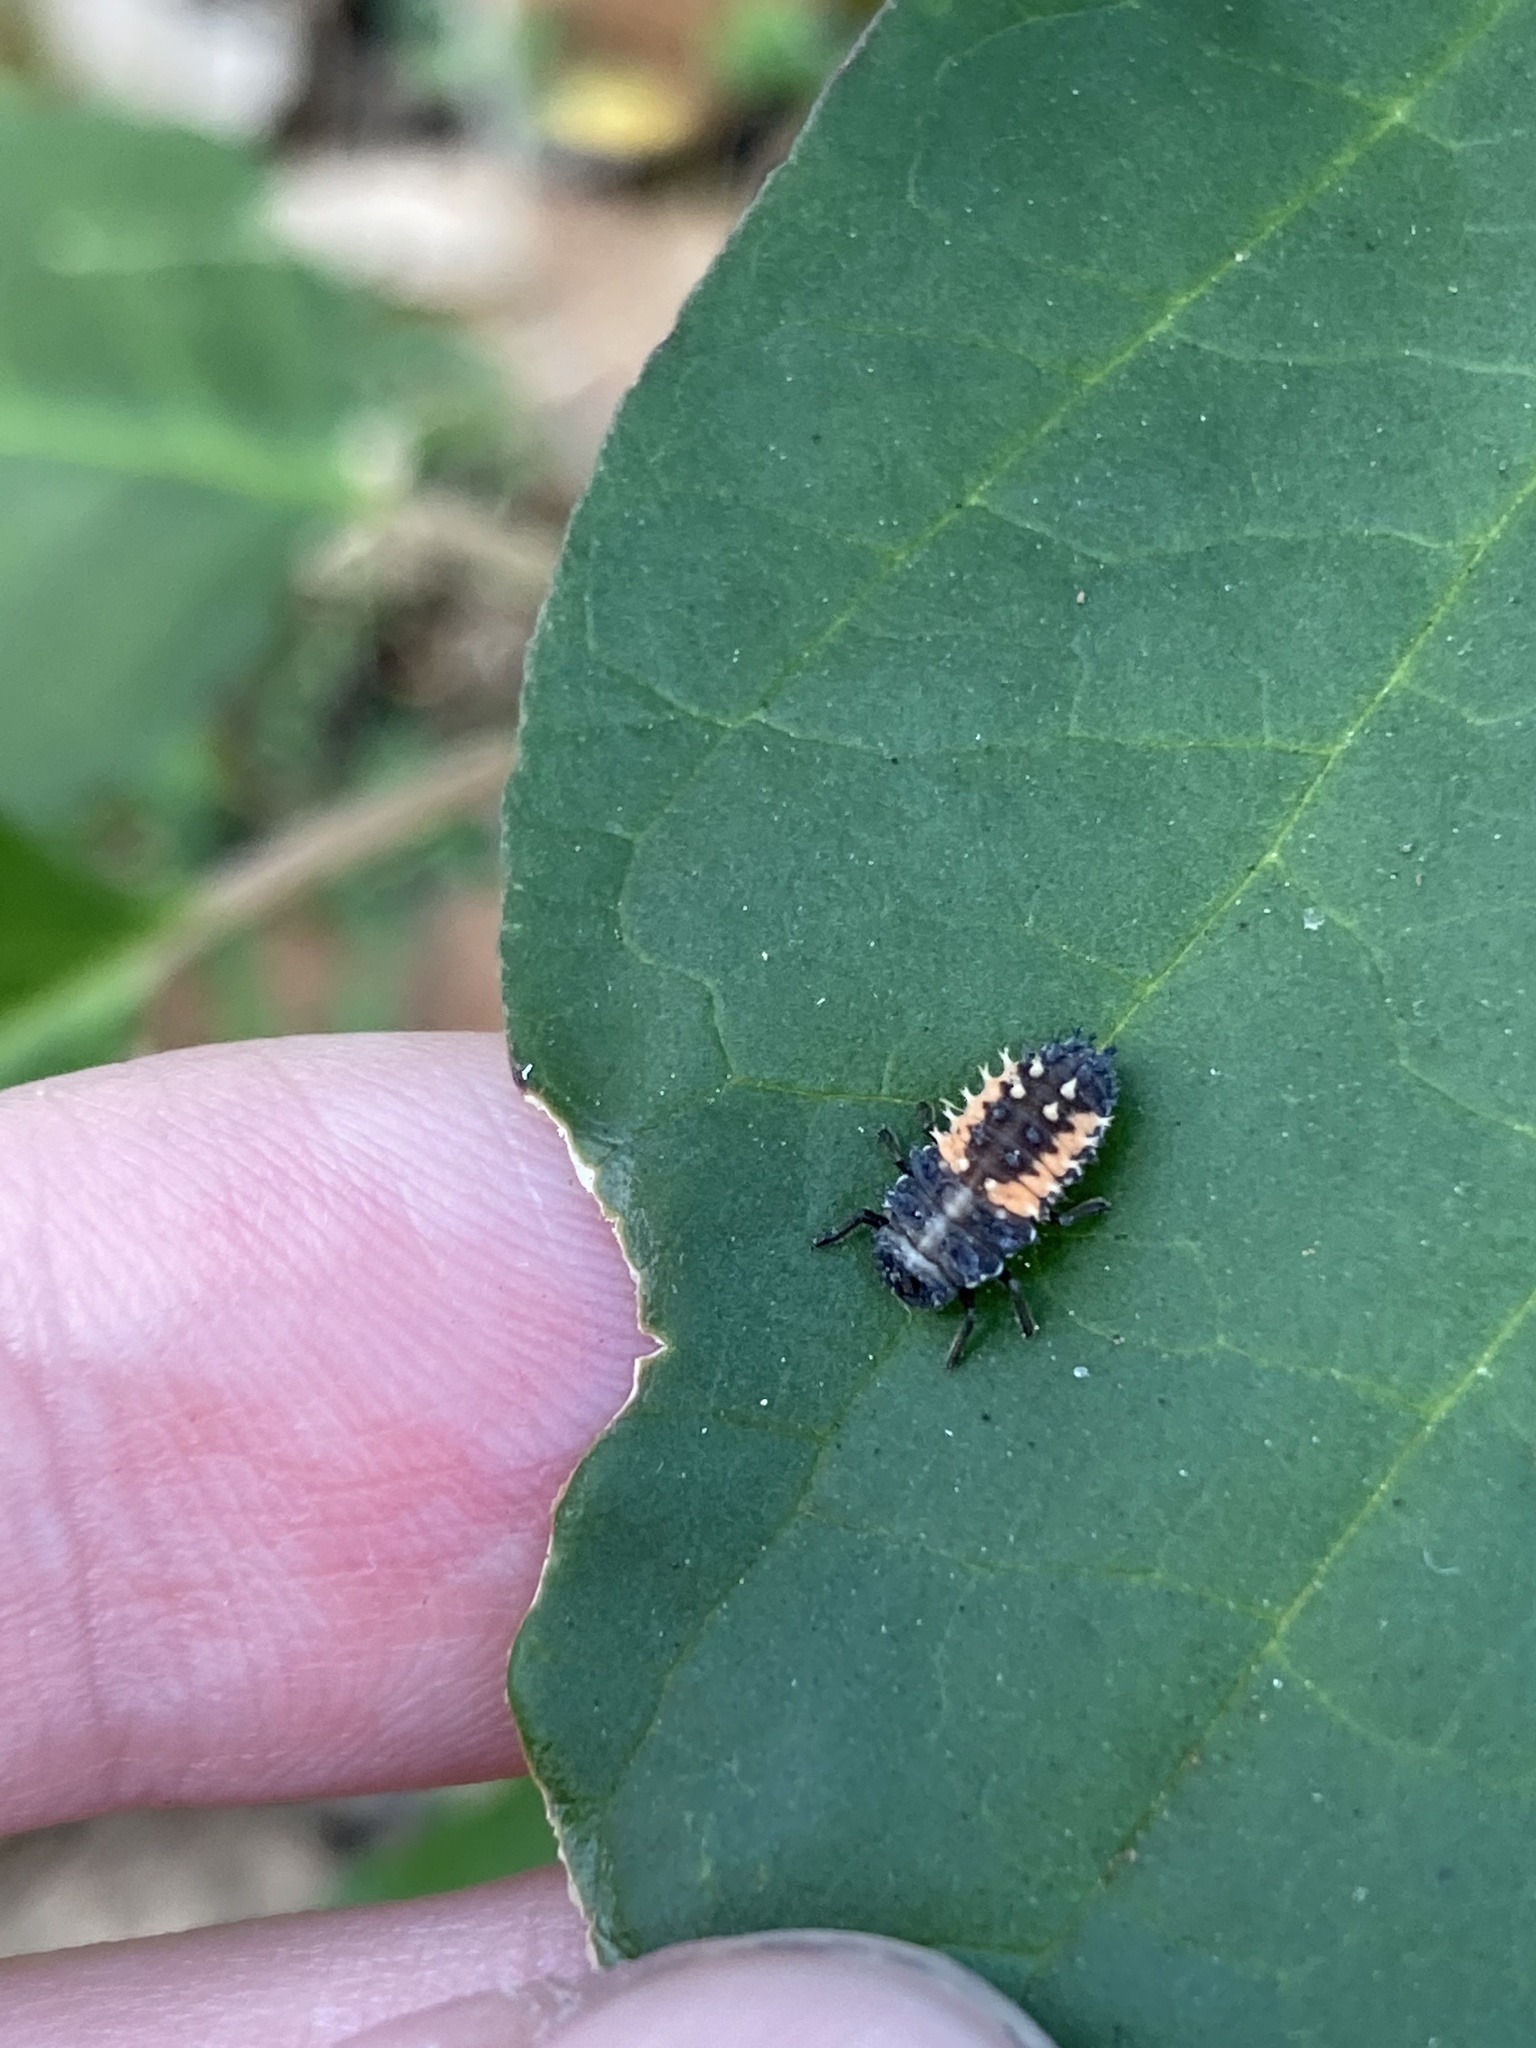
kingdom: Animalia
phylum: Arthropoda
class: Insecta
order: Coleoptera
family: Coccinellidae
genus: Harmonia
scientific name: Harmonia axyridis
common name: Harlequin ladybird
